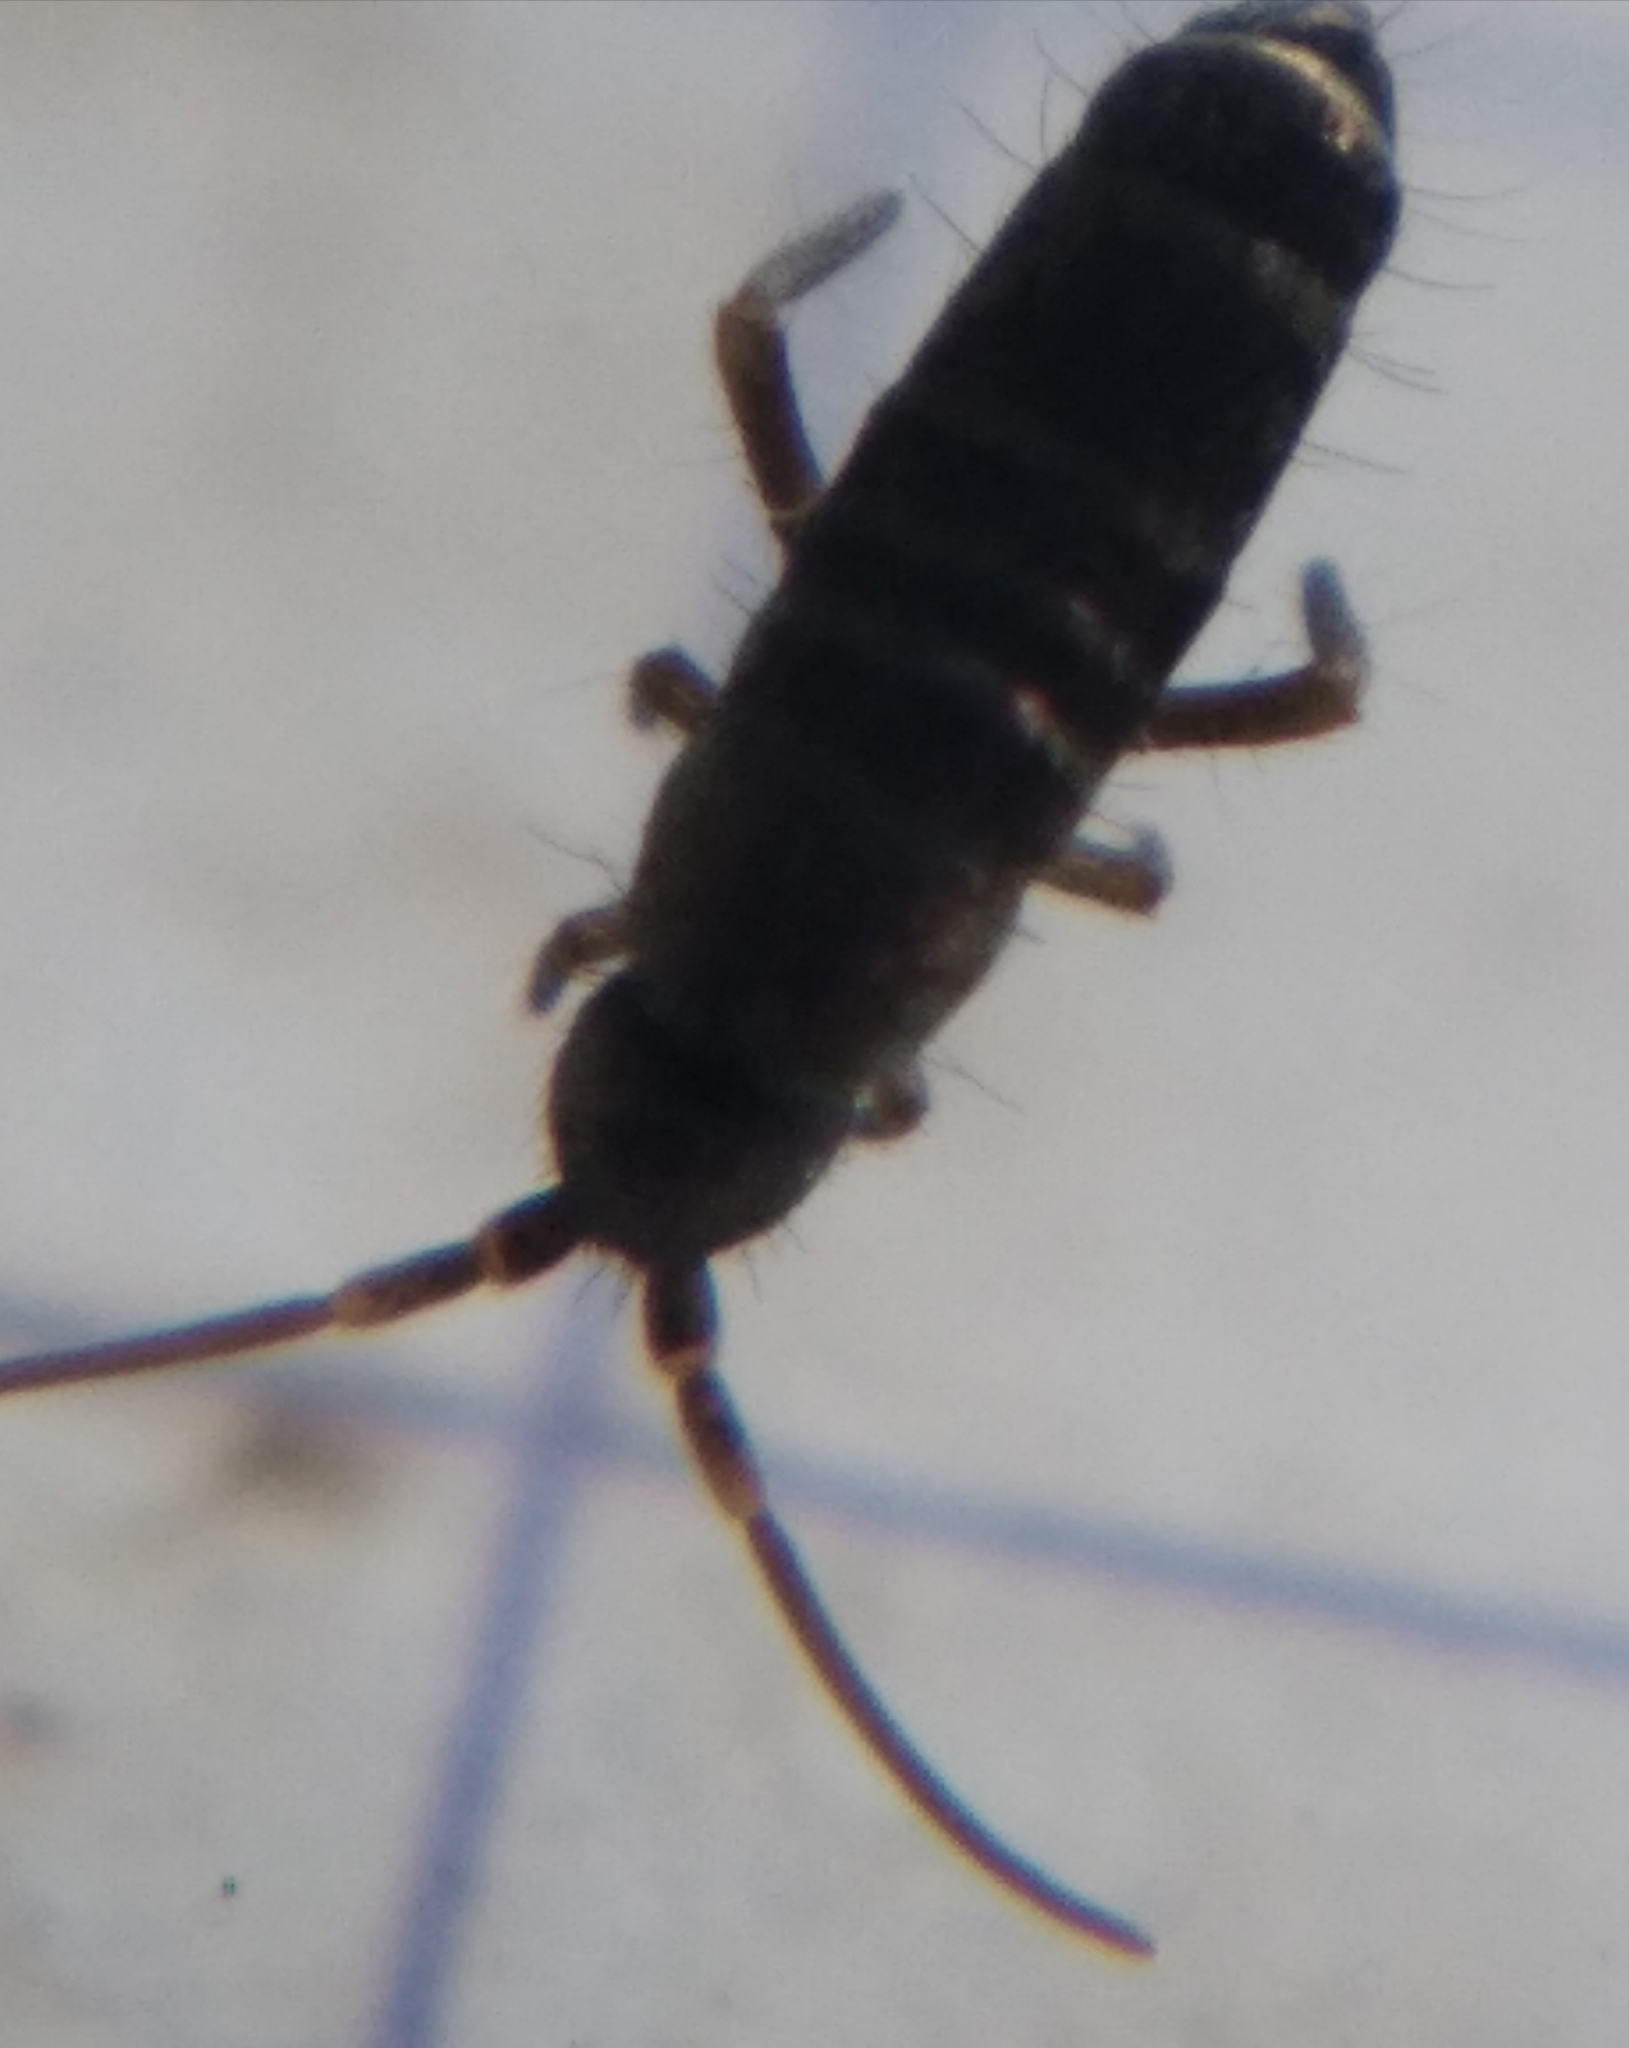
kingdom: Animalia
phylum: Arthropoda
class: Collembola
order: Entomobryomorpha
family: Tomoceridae
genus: Tomocerus
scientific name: Tomocerus vulgaris
